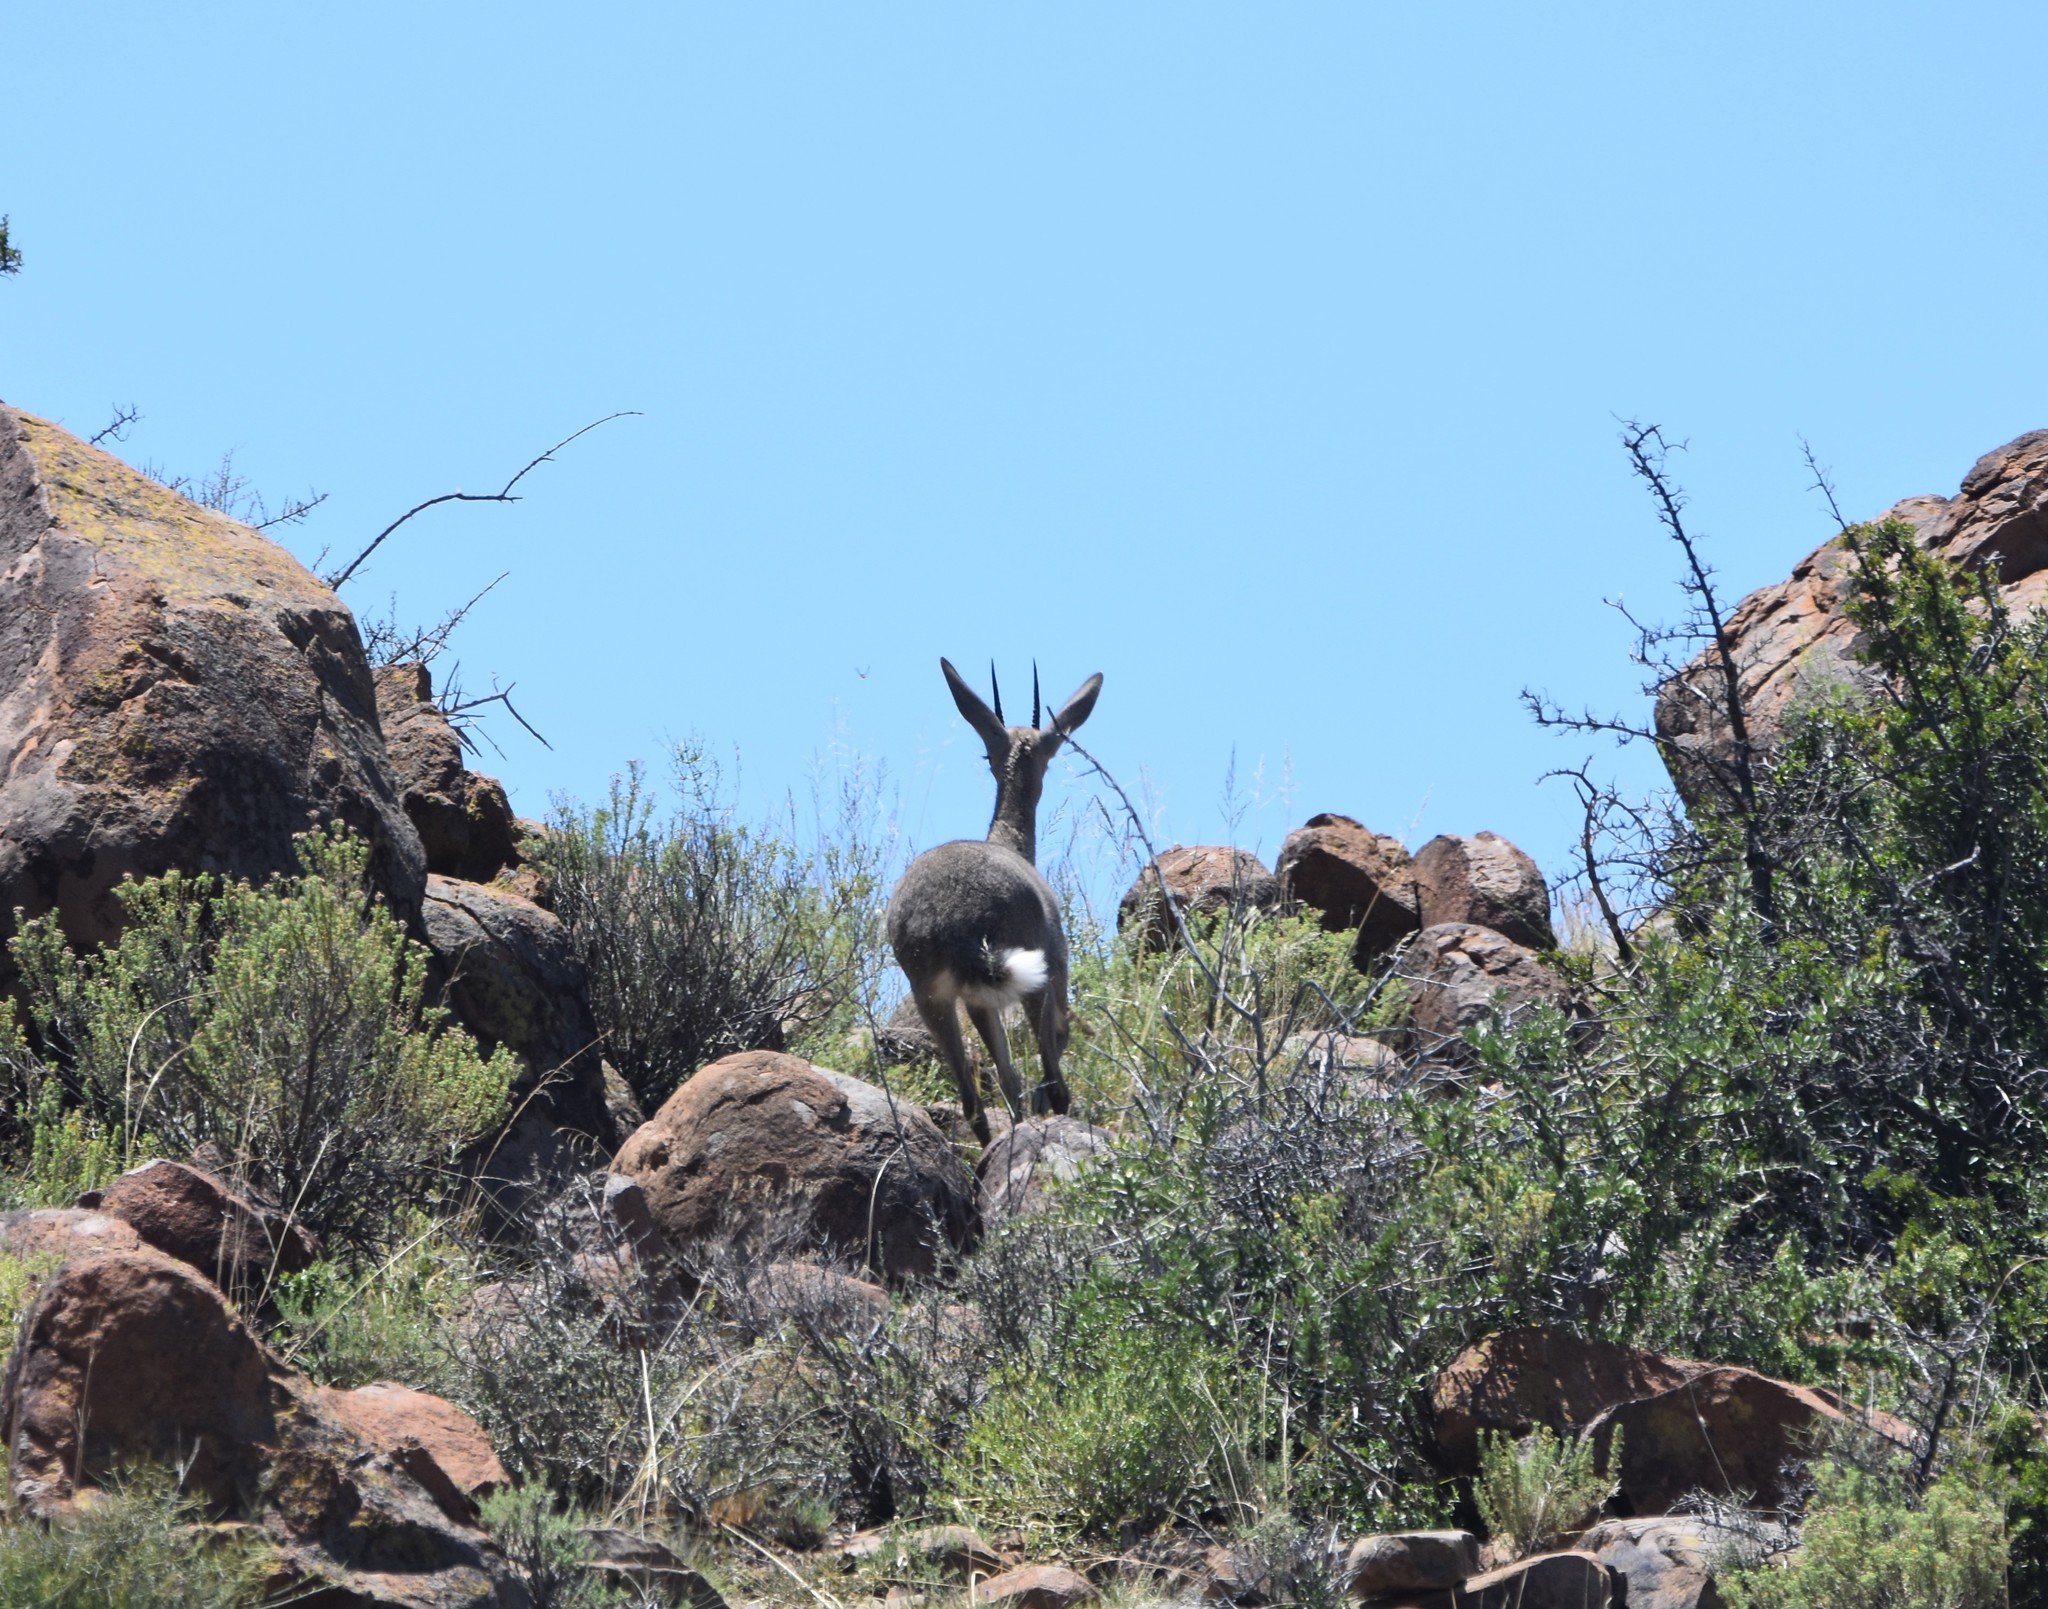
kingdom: Animalia
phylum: Chordata
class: Mammalia
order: Artiodactyla
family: Bovidae
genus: Pelea
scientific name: Pelea capreolus
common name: Common rhebok
